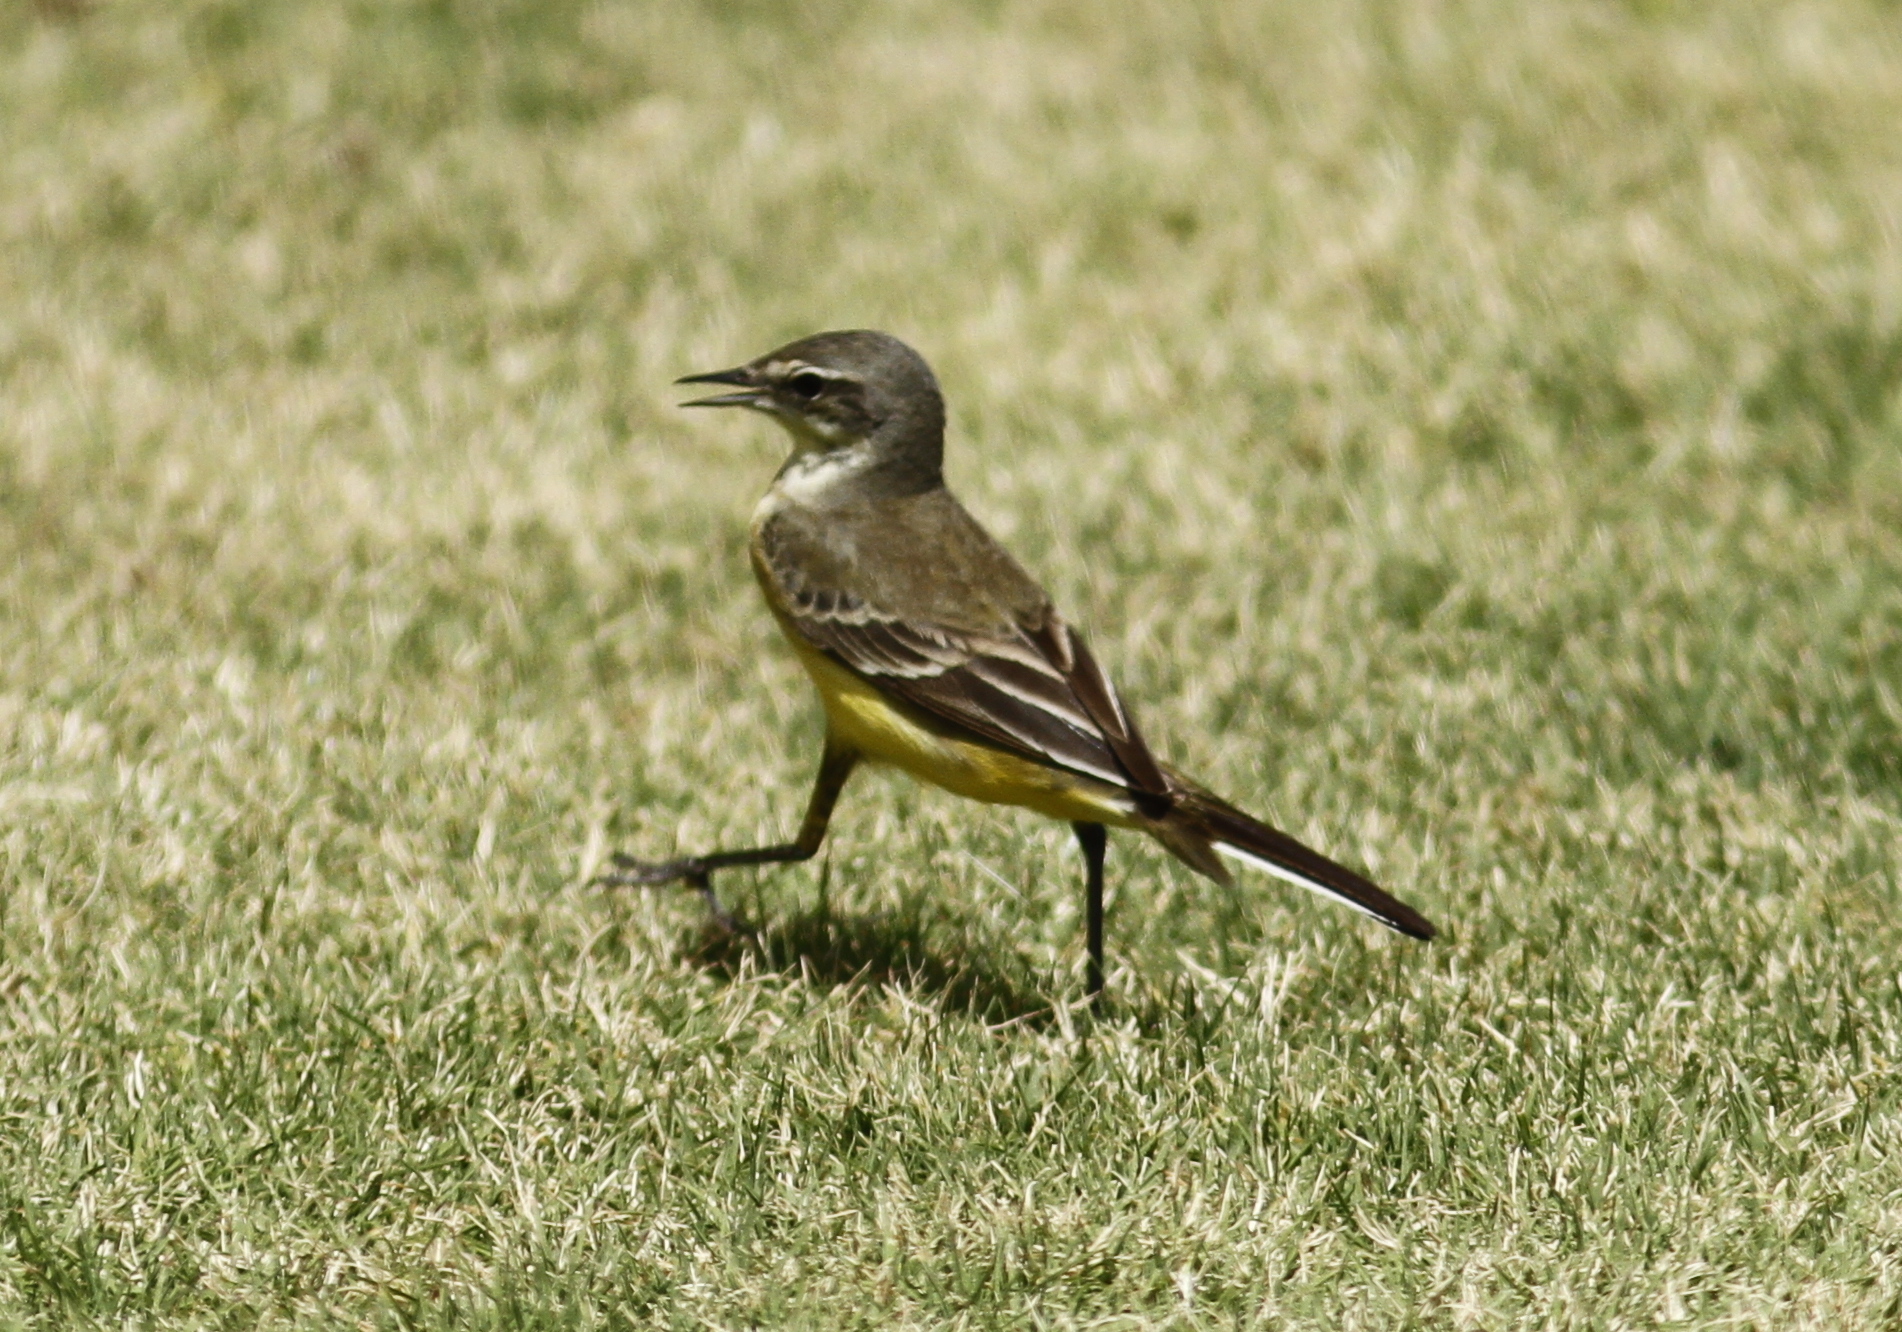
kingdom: Animalia
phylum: Chordata
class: Aves
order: Passeriformes
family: Motacillidae
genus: Motacilla
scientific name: Motacilla flava
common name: Western yellow wagtail
